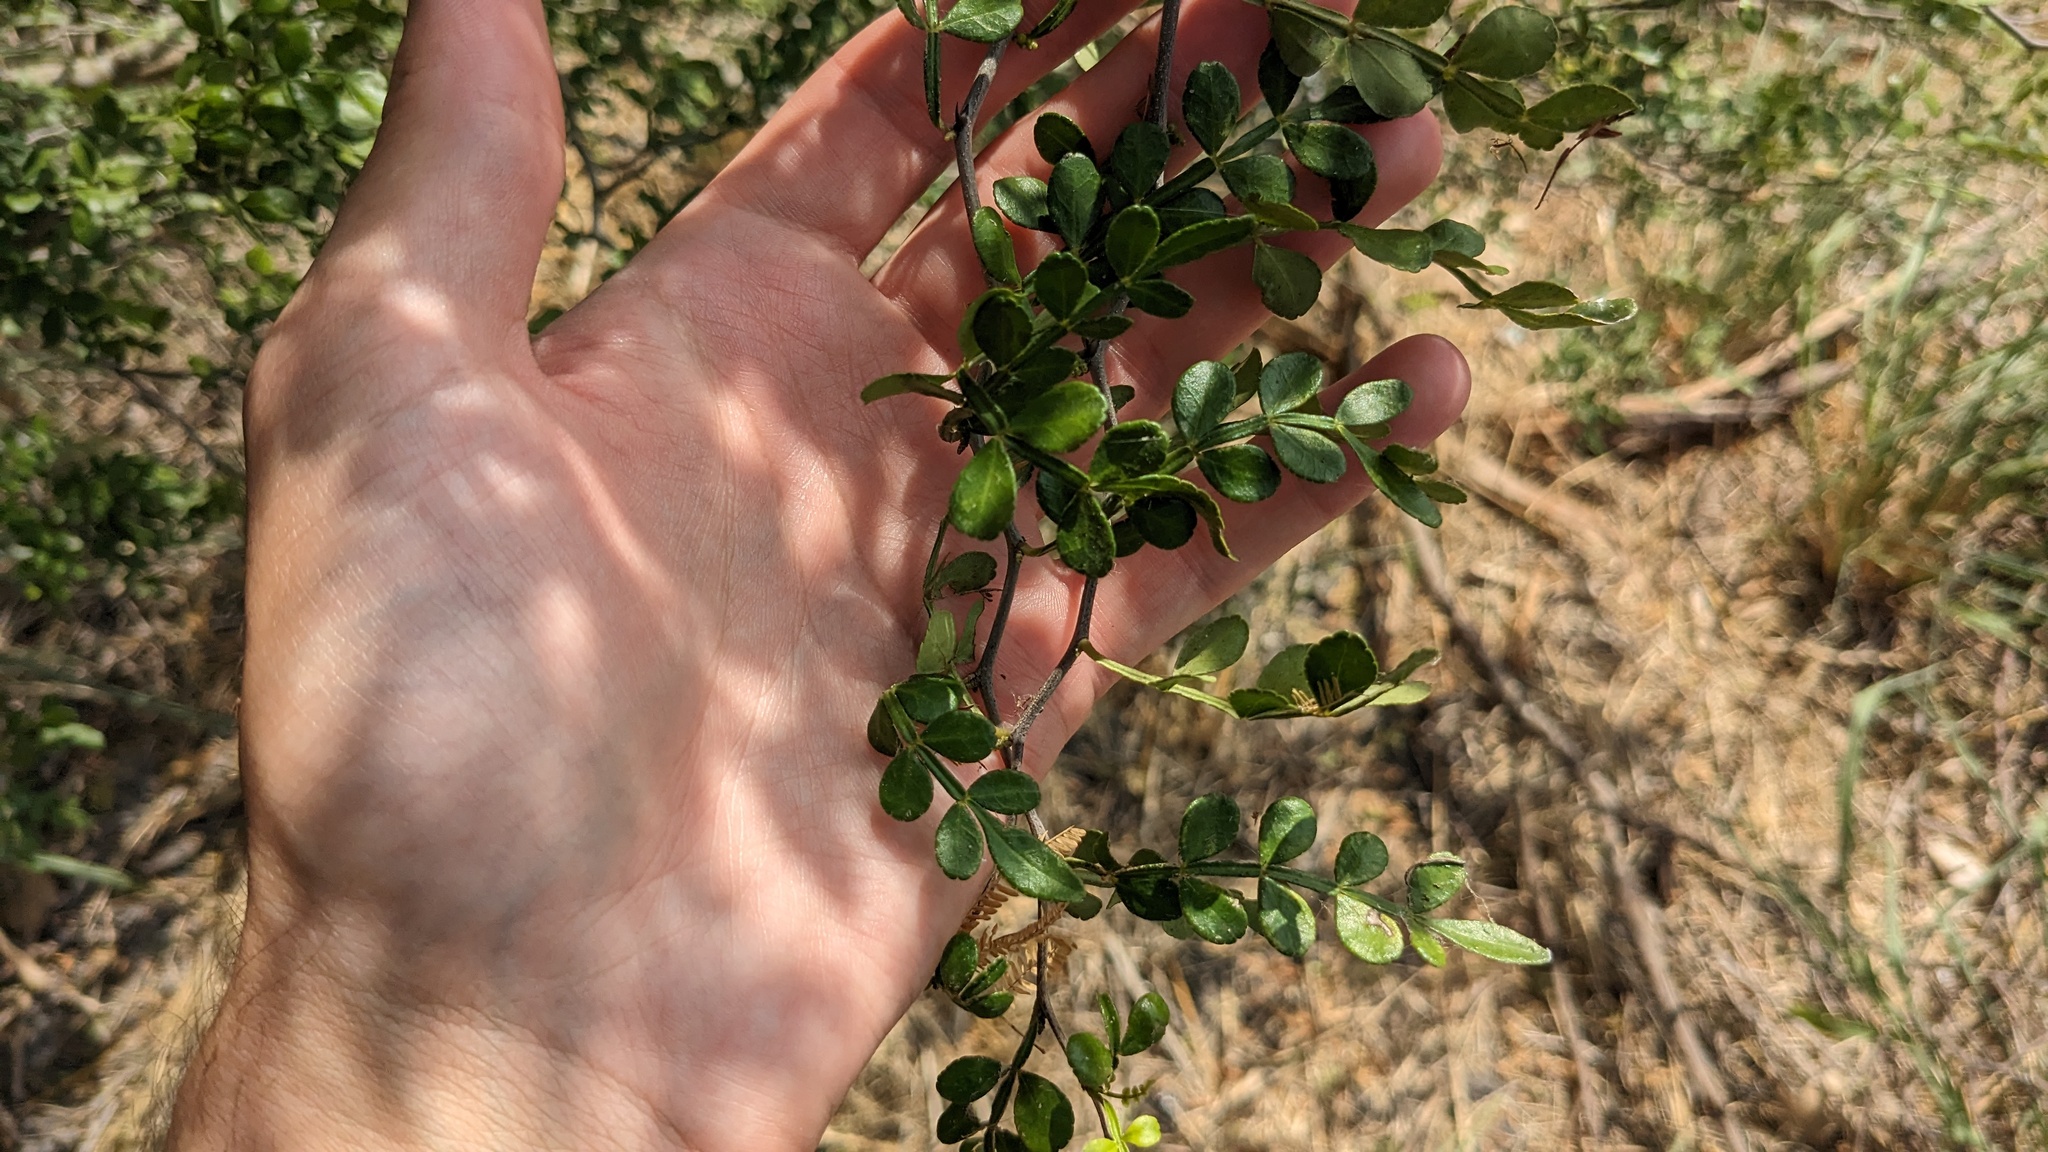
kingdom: Plantae
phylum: Tracheophyta
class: Magnoliopsida
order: Sapindales
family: Rutaceae
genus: Zanthoxylum
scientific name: Zanthoxylum fagara
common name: Lime prickly-ash
